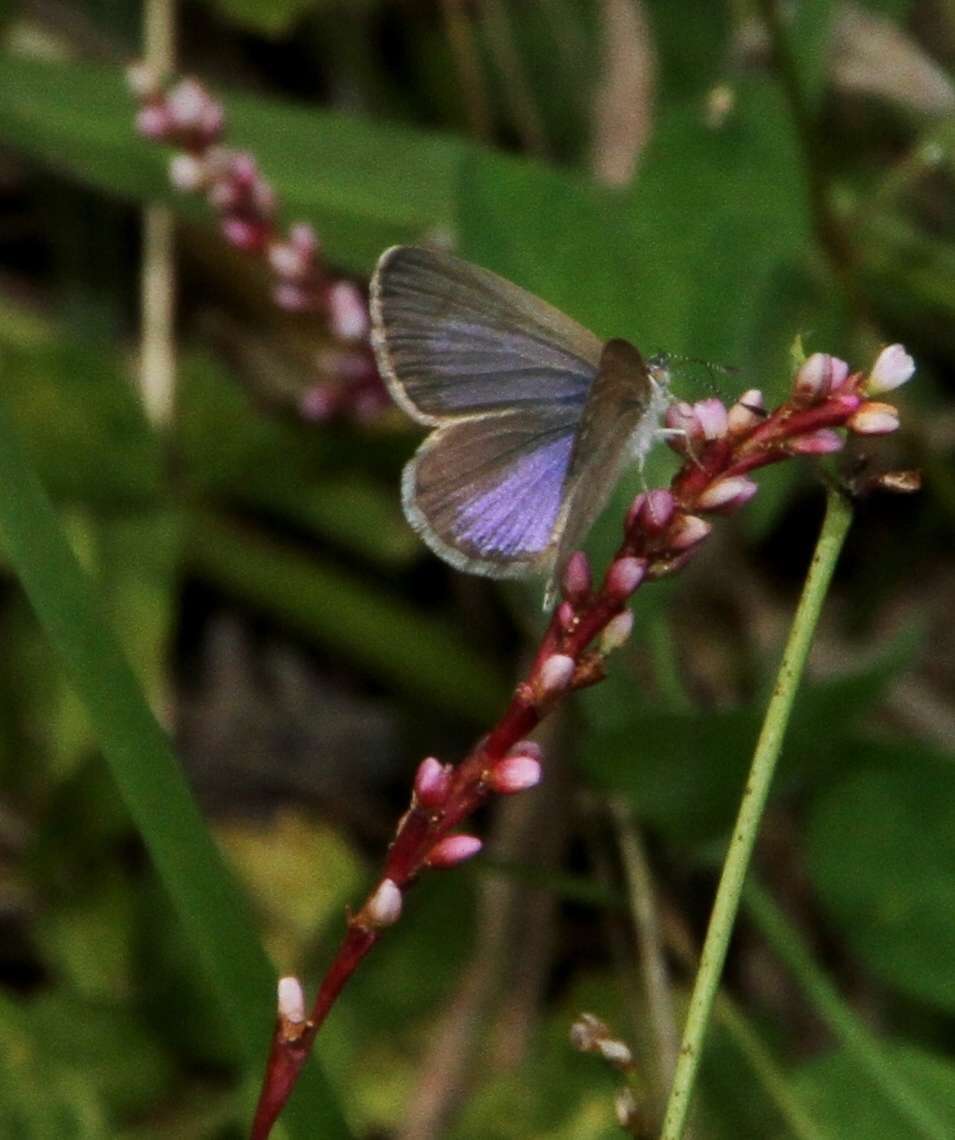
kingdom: Animalia
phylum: Arthropoda
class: Insecta
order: Lepidoptera
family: Lycaenidae
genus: Zizina
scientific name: Zizina labradus
